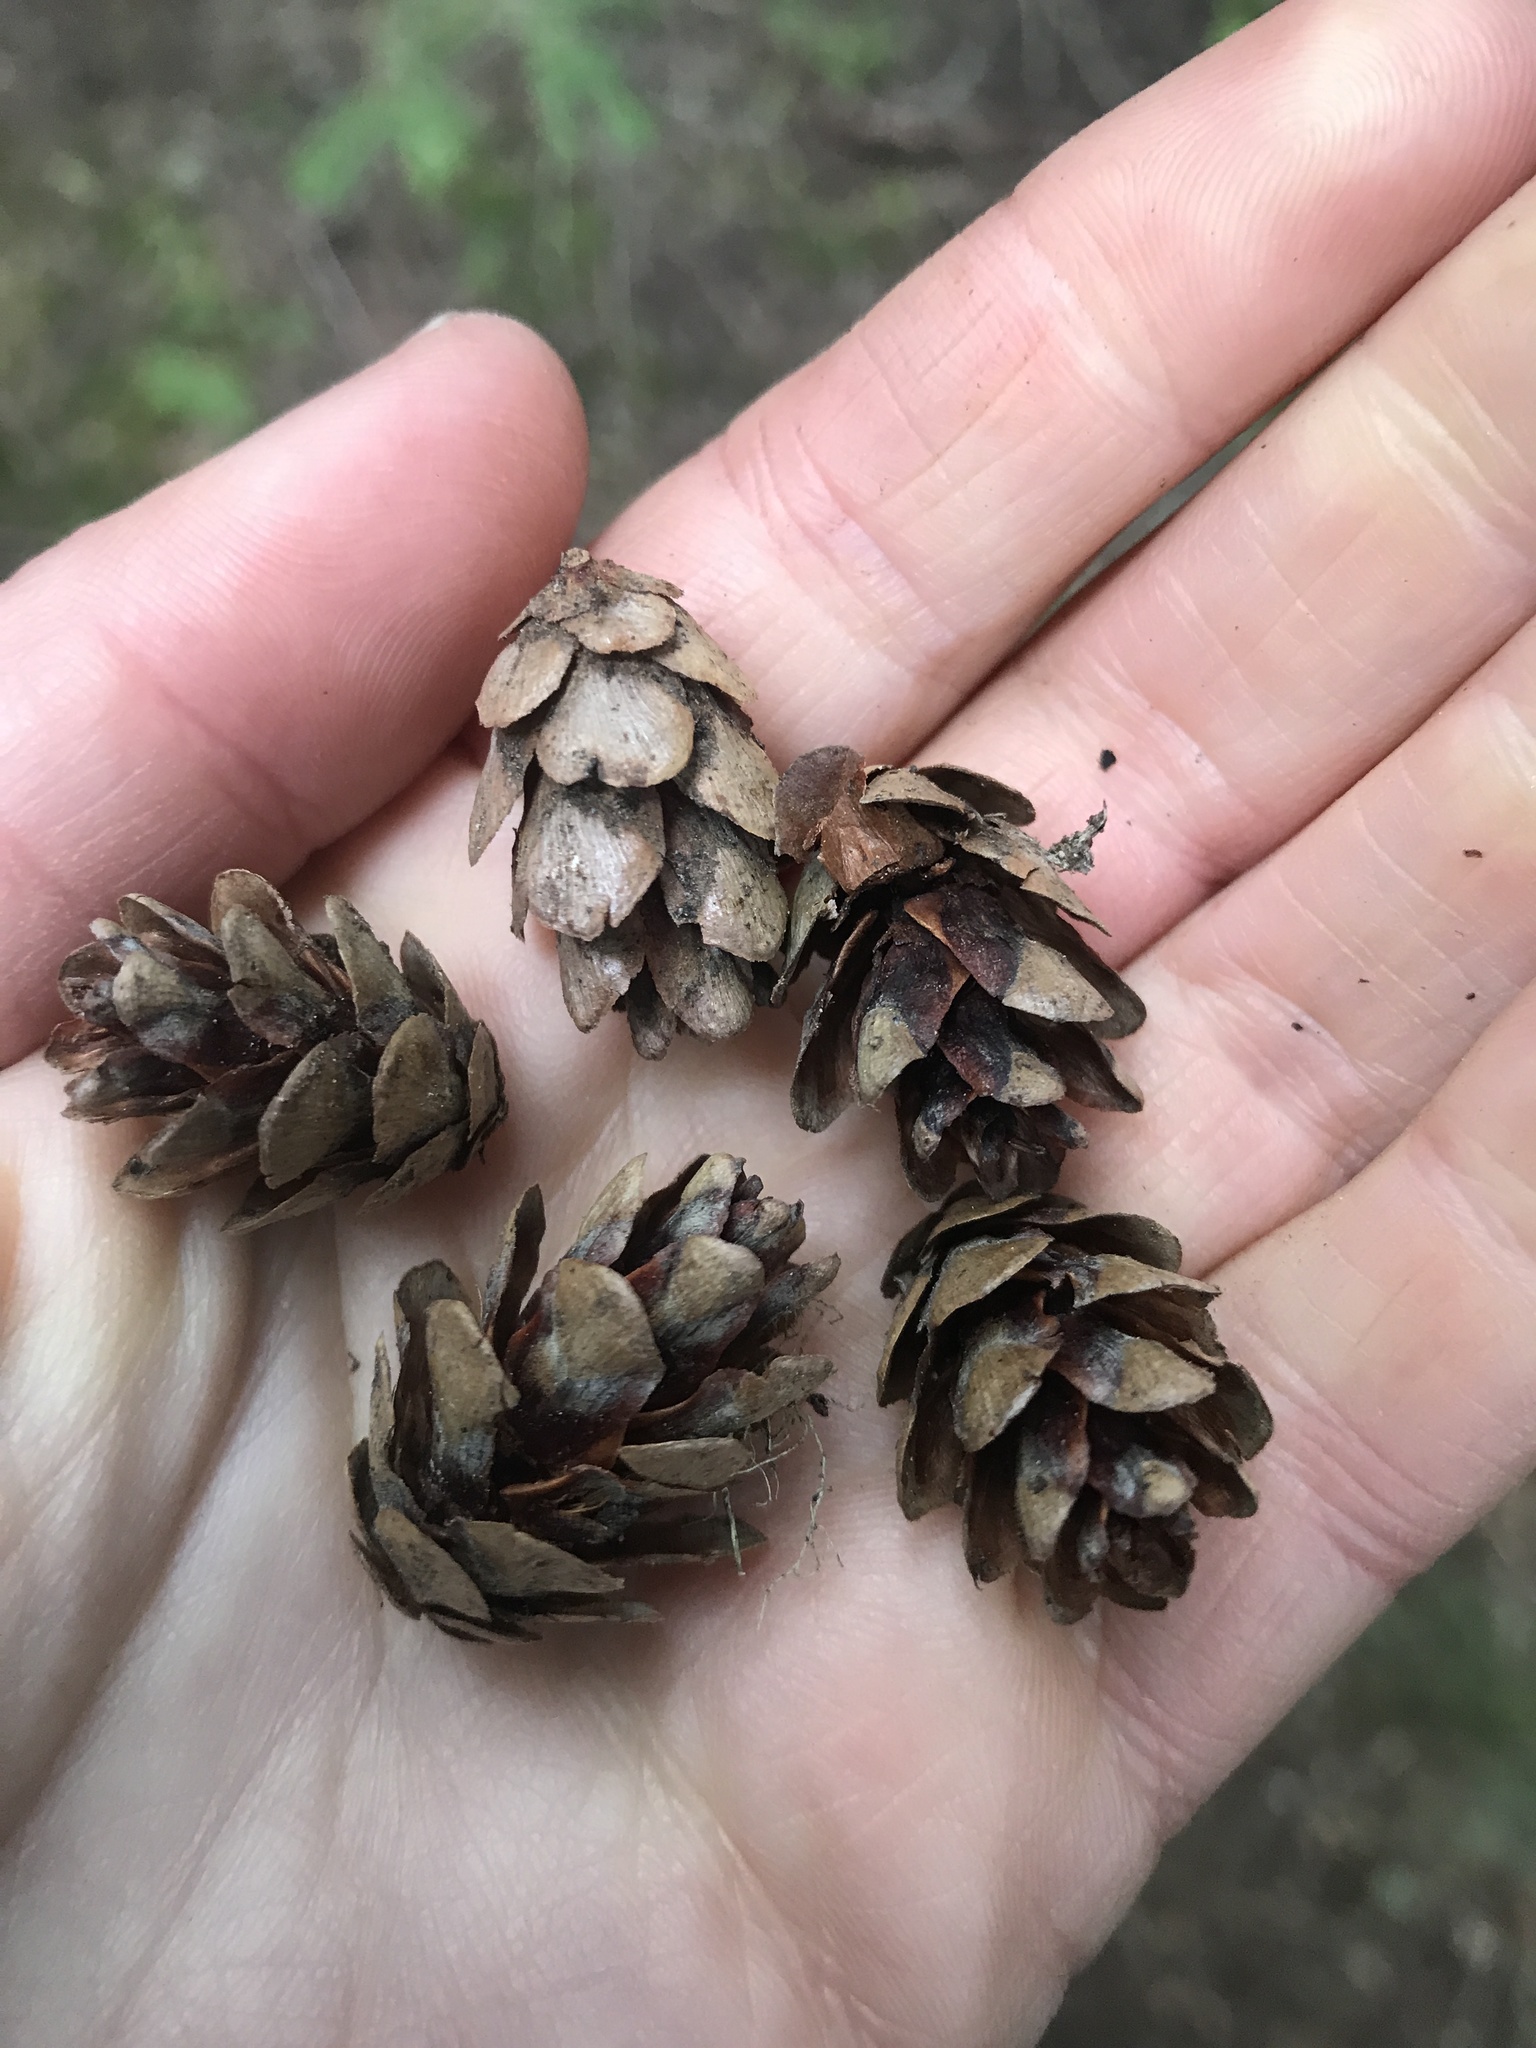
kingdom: Plantae
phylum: Tracheophyta
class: Pinopsida
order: Pinales
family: Pinaceae
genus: Tsuga
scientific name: Tsuga heterophylla
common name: Western hemlock
